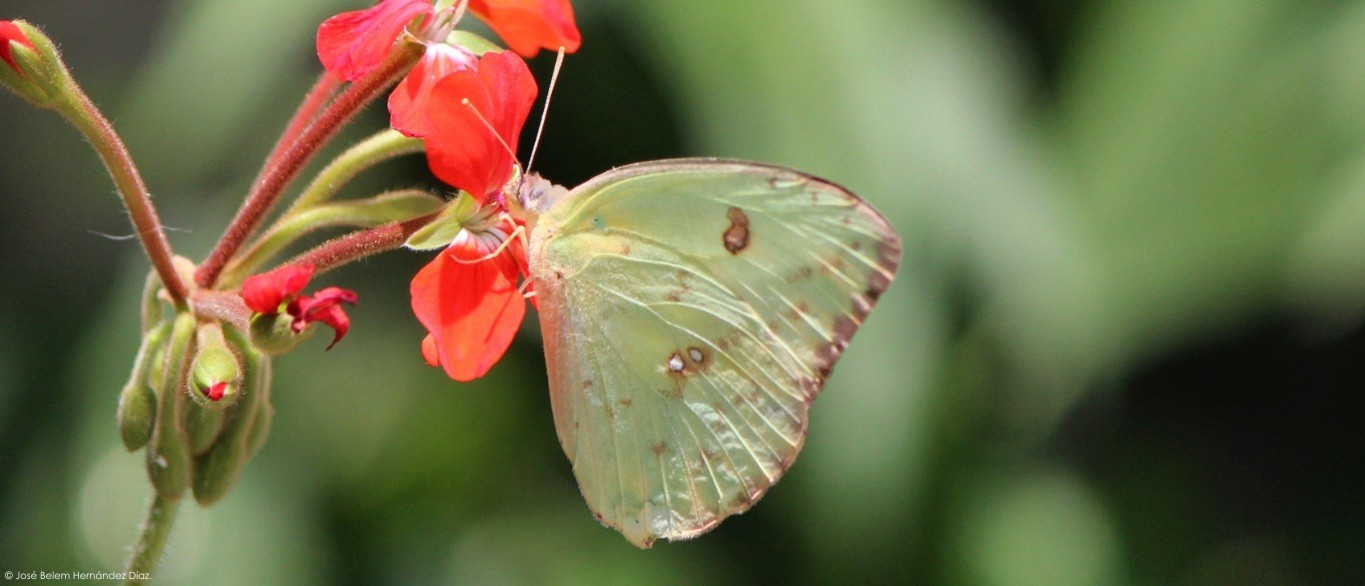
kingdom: Animalia
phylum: Arthropoda
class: Insecta
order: Lepidoptera
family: Pieridae
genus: Phoebis
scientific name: Phoebis sennae
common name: Cloudless sulphur
